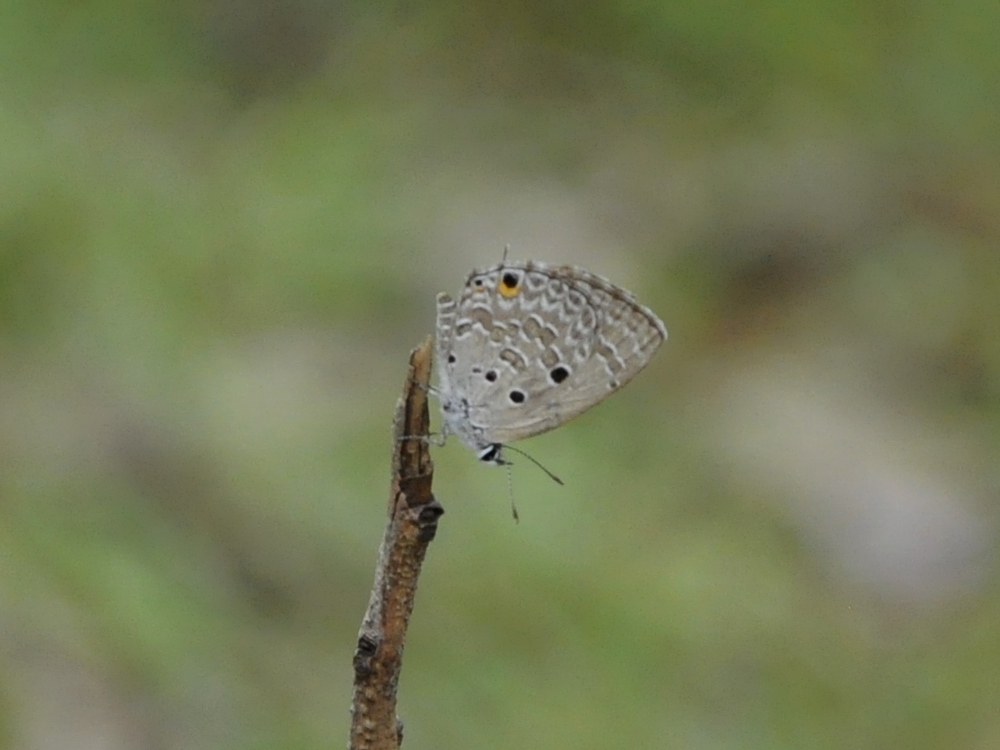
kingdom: Animalia
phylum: Arthropoda
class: Insecta
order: Lepidoptera
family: Lycaenidae
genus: Luthrodes
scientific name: Luthrodes pandava
